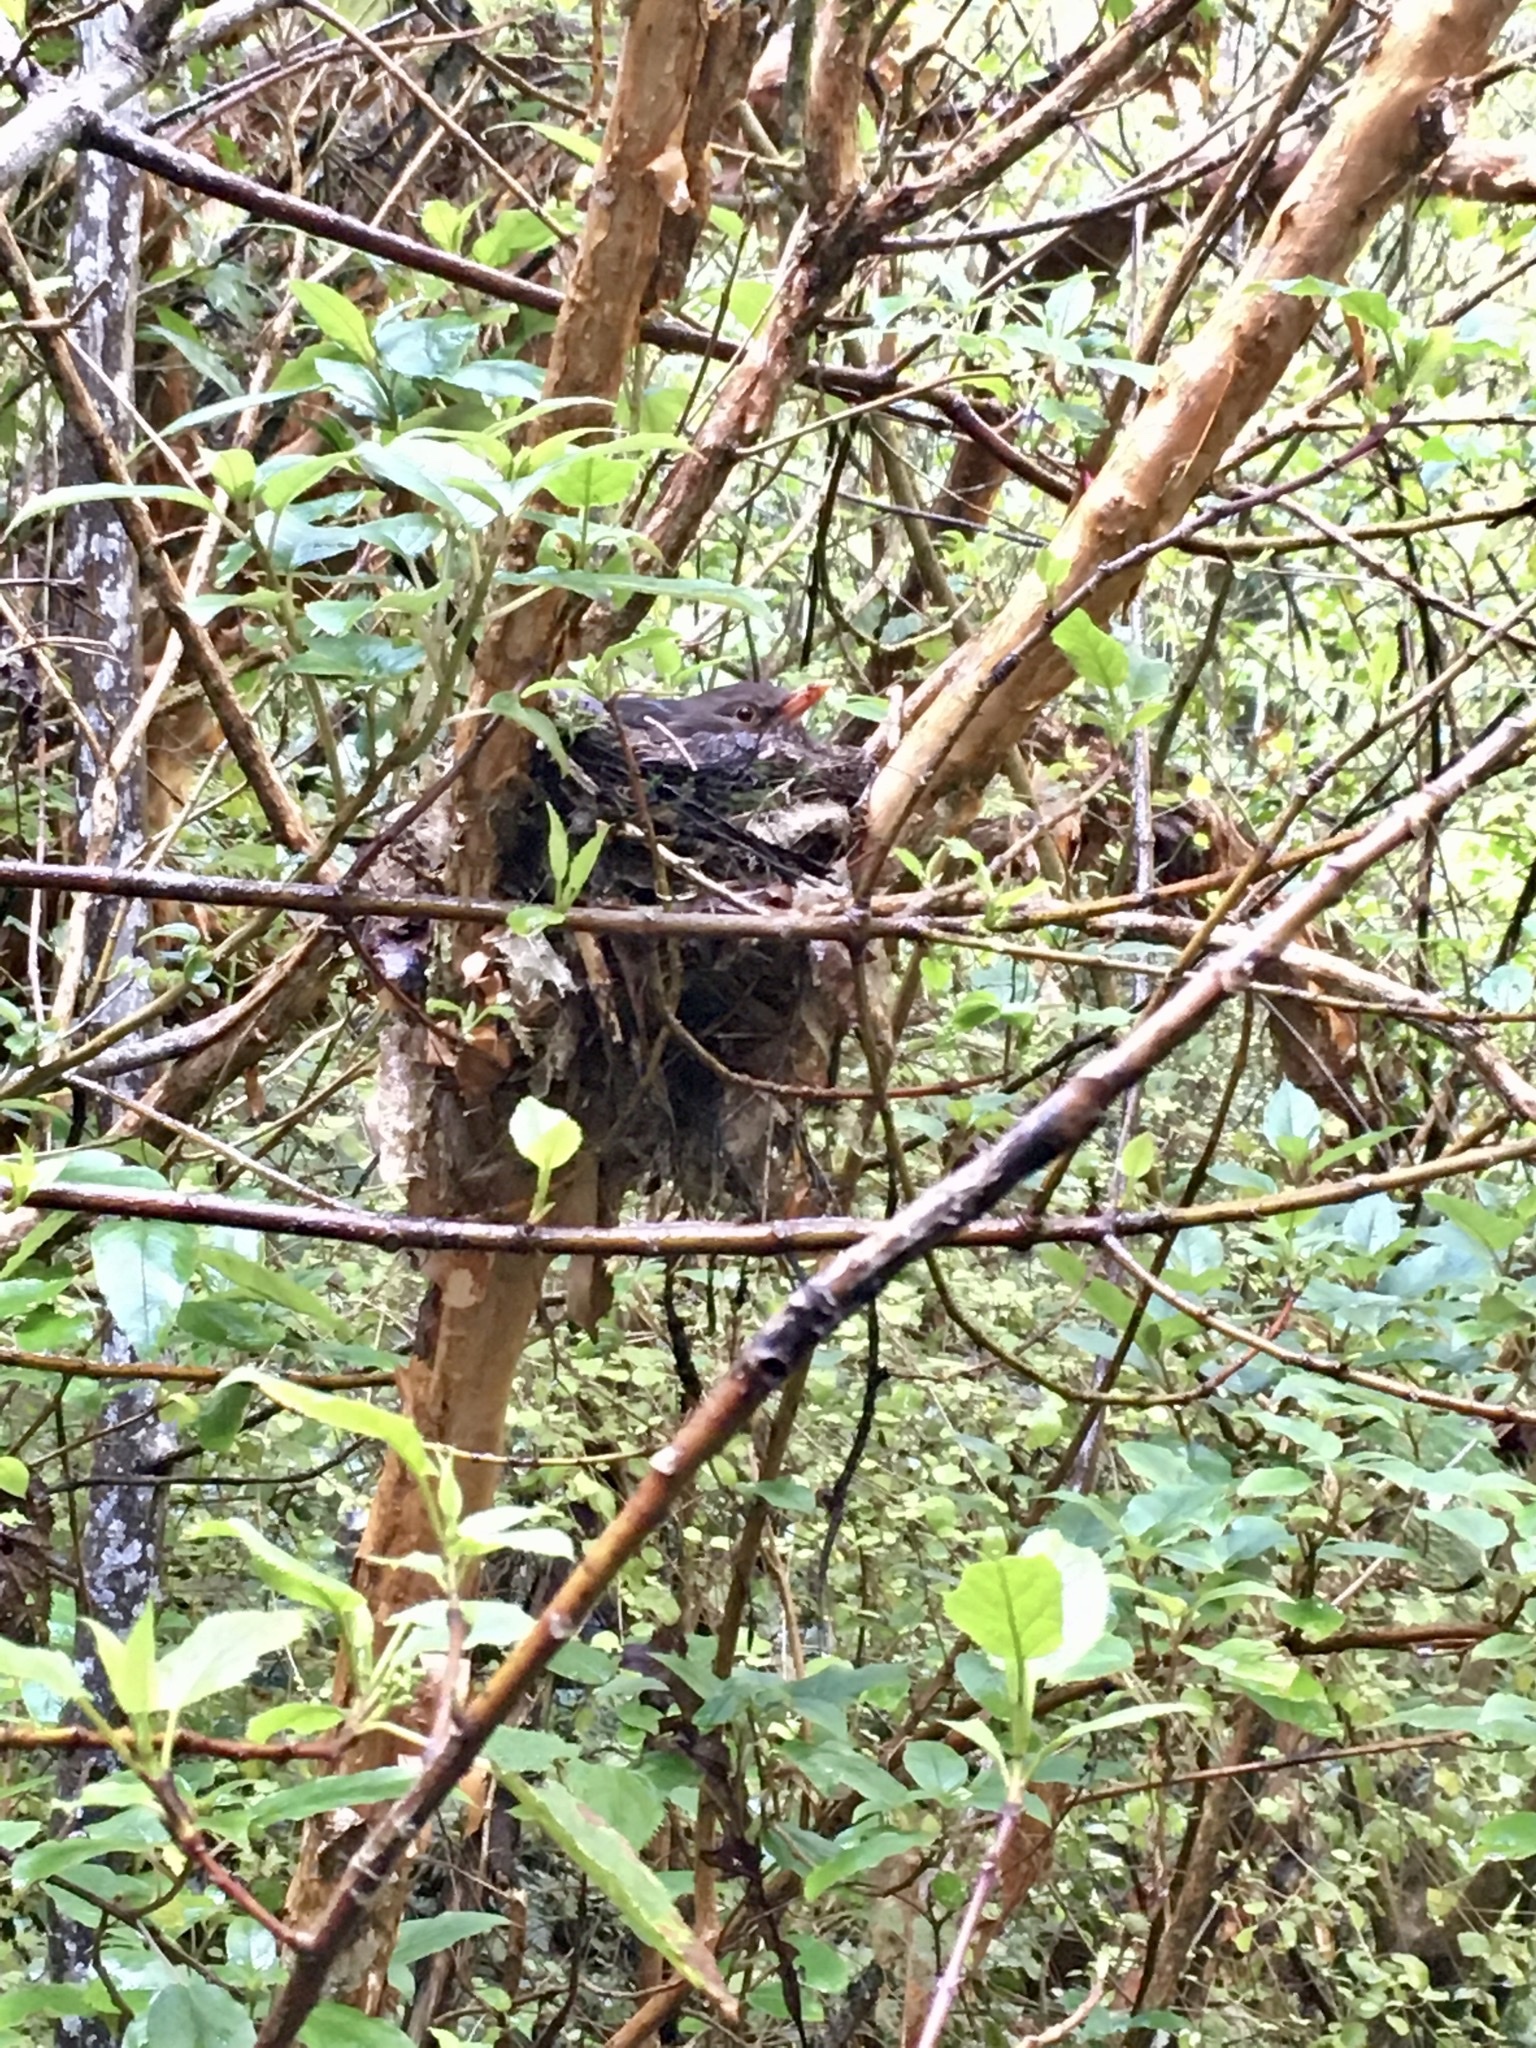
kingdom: Animalia
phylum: Chordata
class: Aves
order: Passeriformes
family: Turdidae
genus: Turdus
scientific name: Turdus merula
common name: Common blackbird
